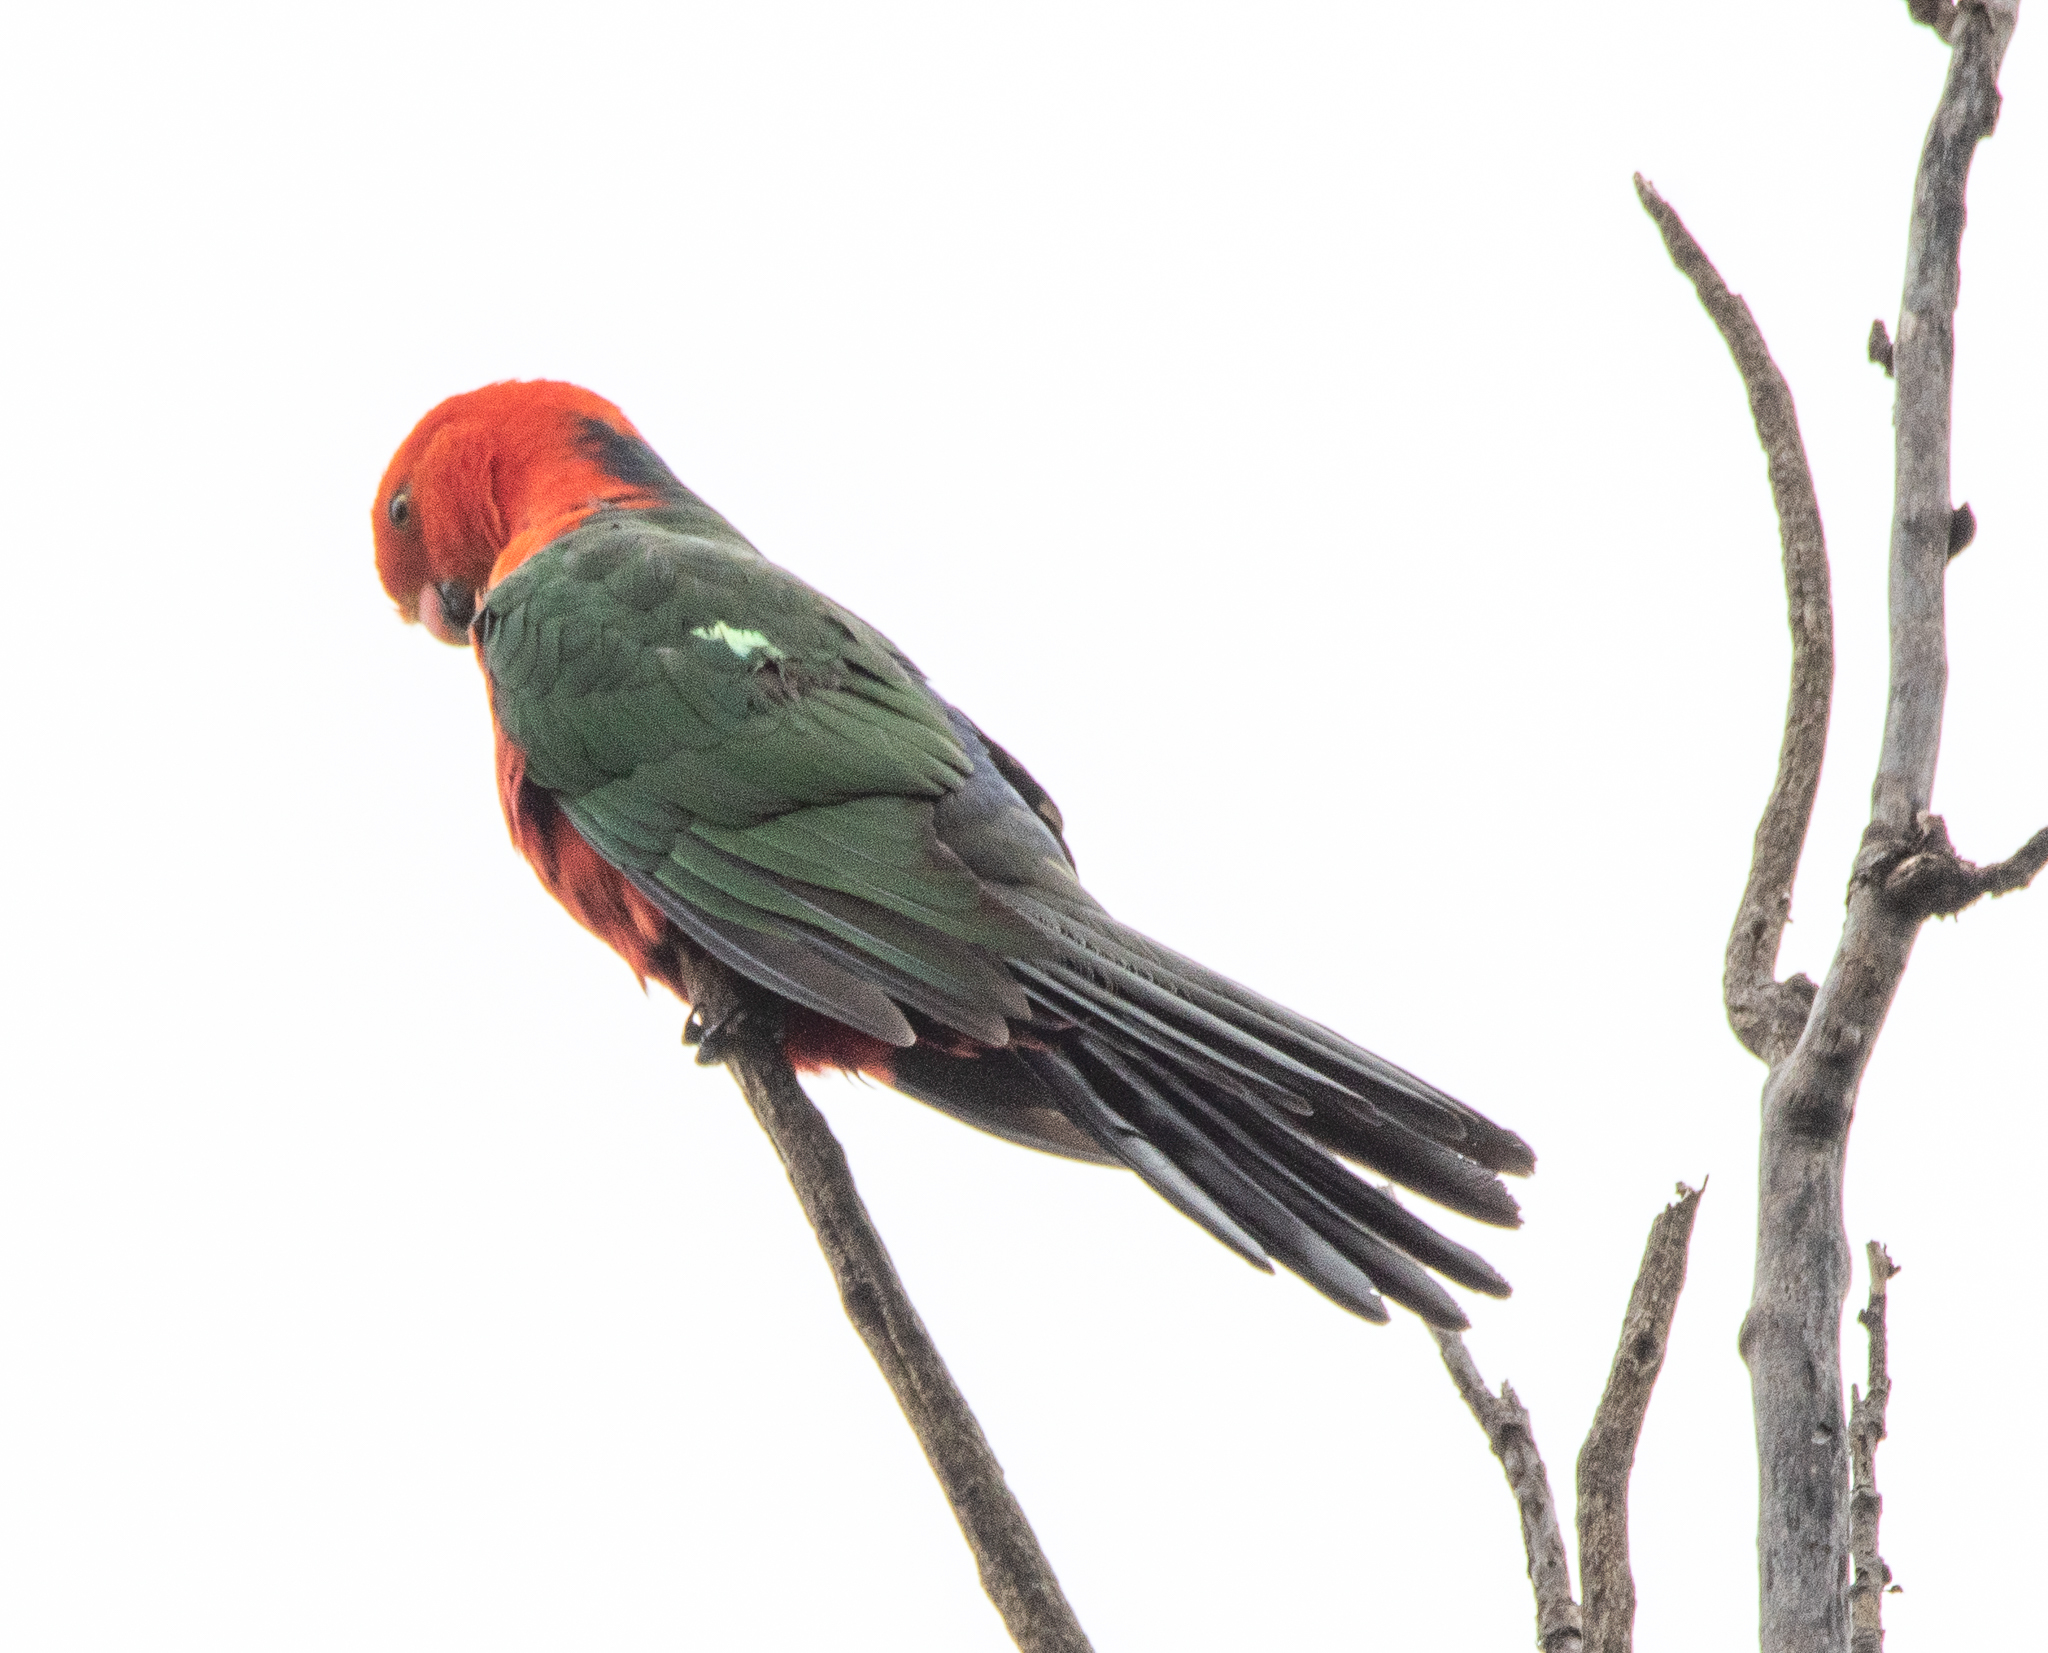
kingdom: Animalia
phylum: Chordata
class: Aves
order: Psittaciformes
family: Psittacidae
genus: Alisterus
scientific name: Alisterus scapularis
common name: Australian king parrot
